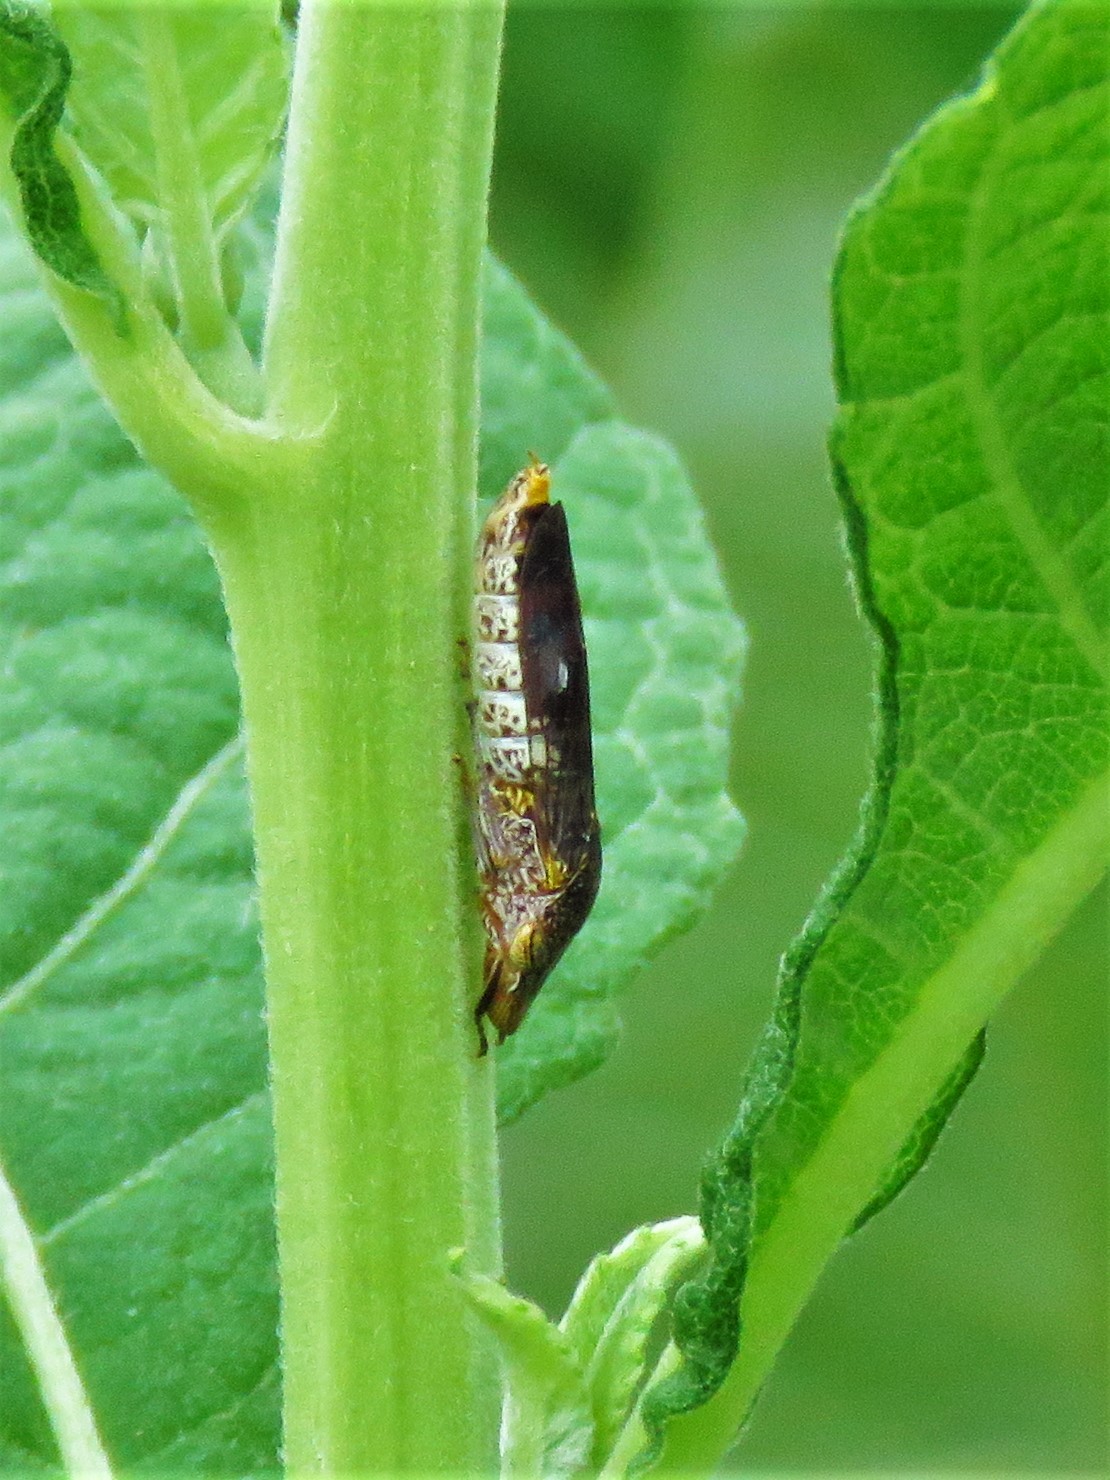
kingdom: Animalia
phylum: Arthropoda
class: Insecta
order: Hemiptera
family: Cicadellidae
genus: Homalodisca
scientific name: Homalodisca vitripennis
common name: Glassy-winged sharpshooter
